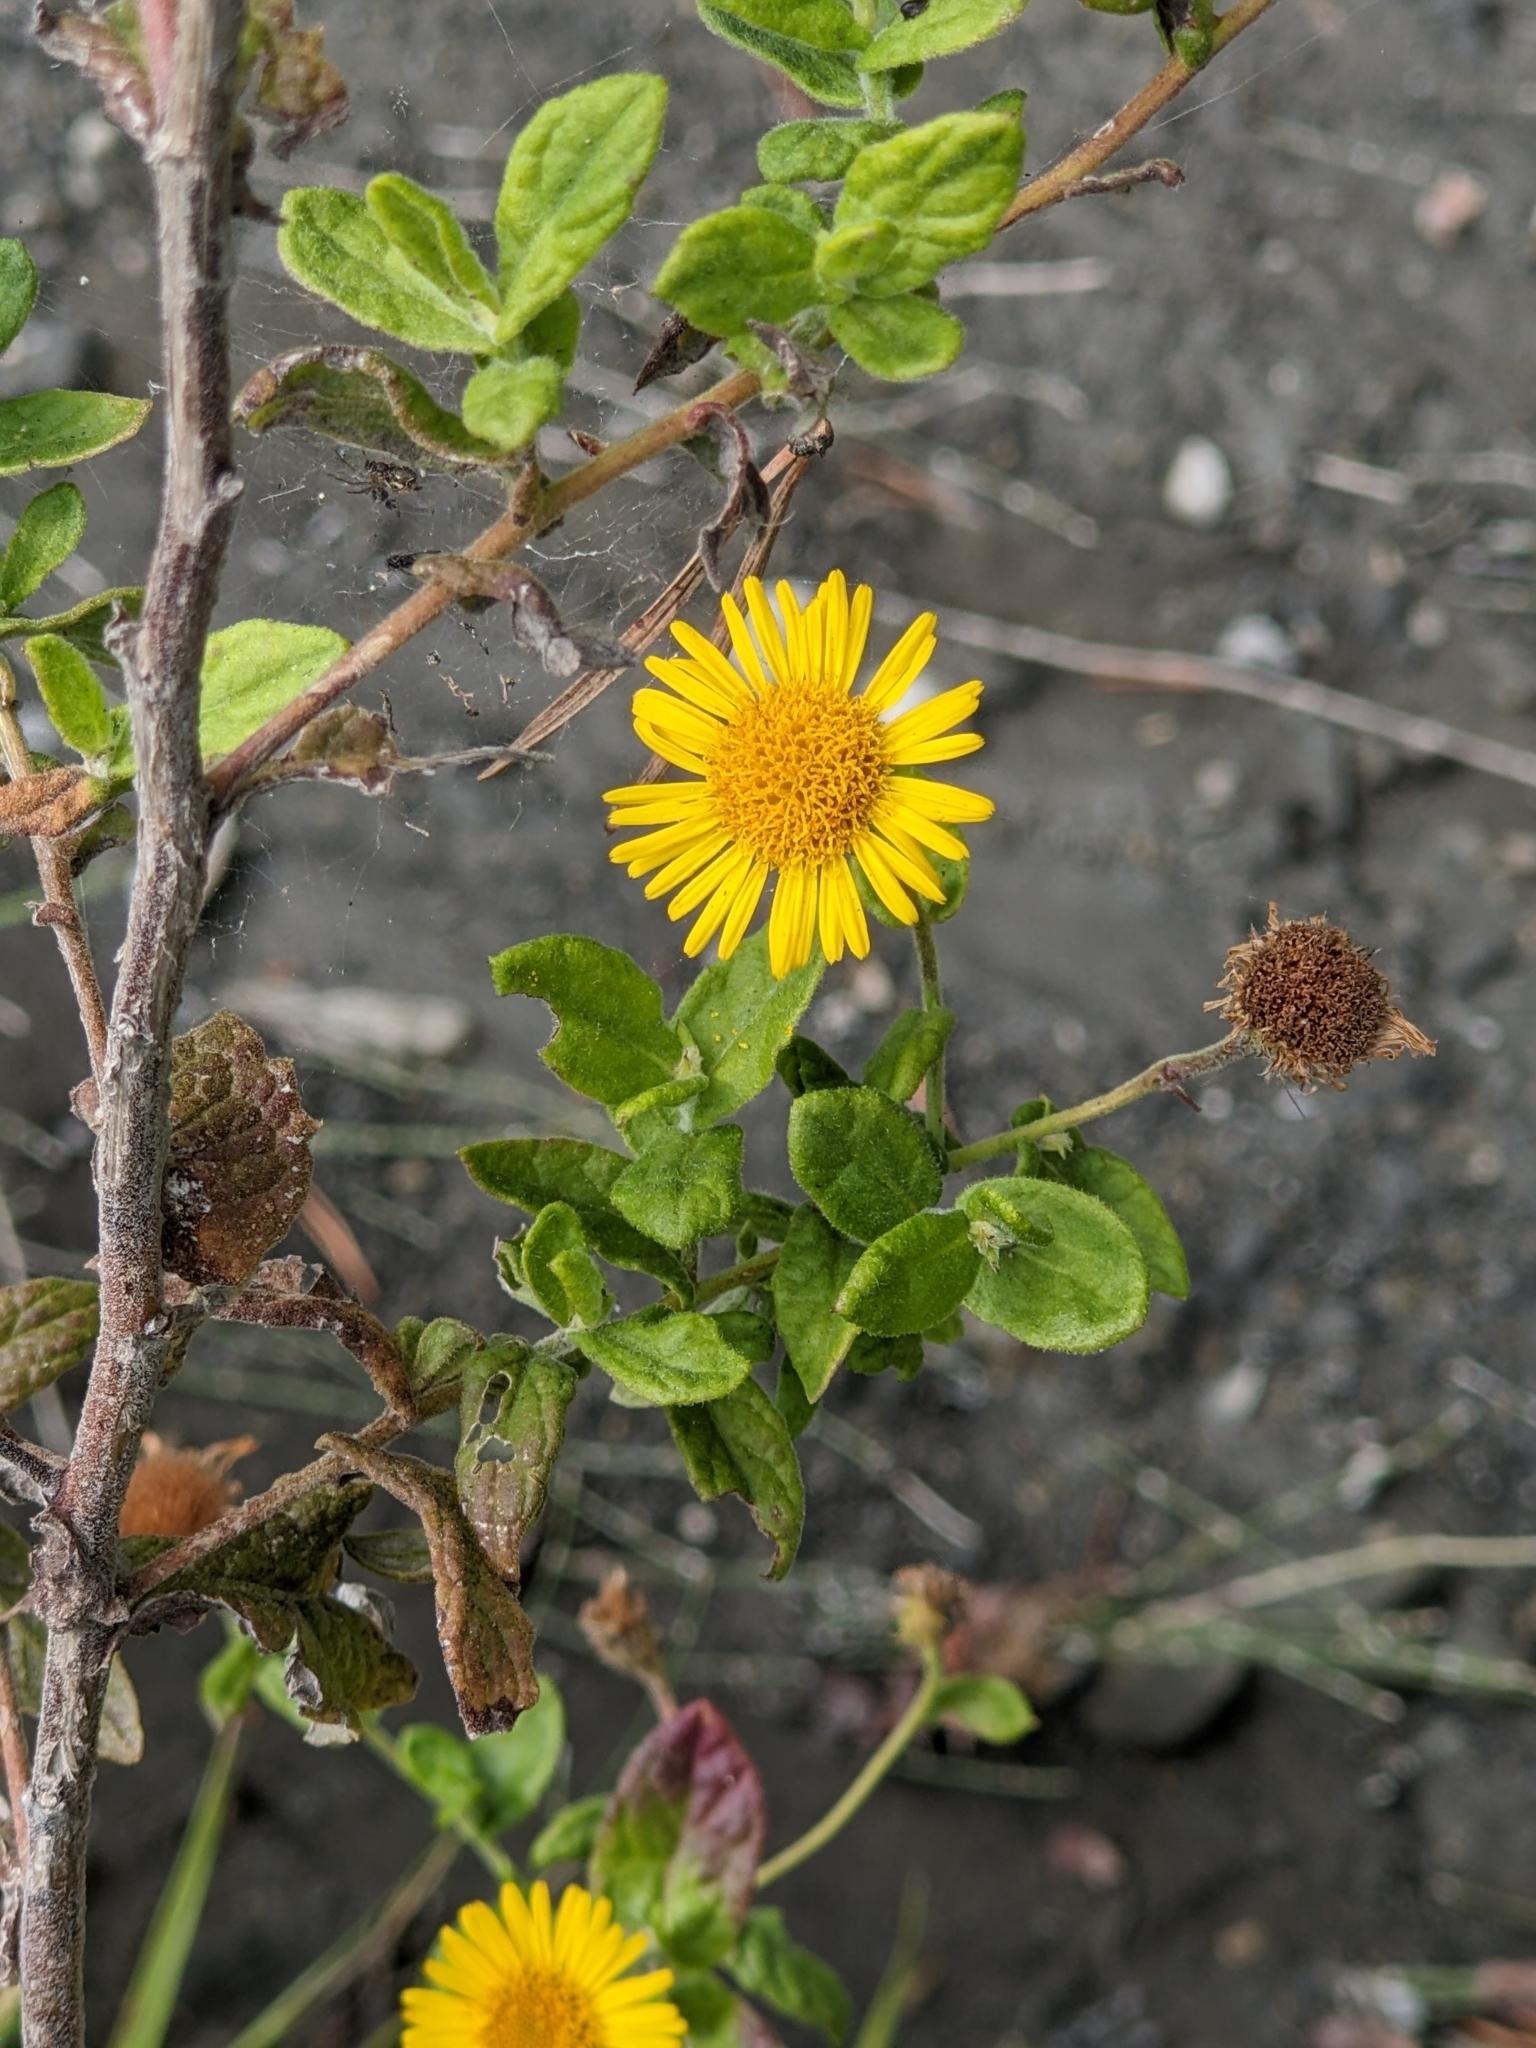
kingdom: Plantae
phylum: Tracheophyta
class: Magnoliopsida
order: Asterales
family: Asteraceae
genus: Pulicaria
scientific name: Pulicaria dysenterica
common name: Common fleabane
